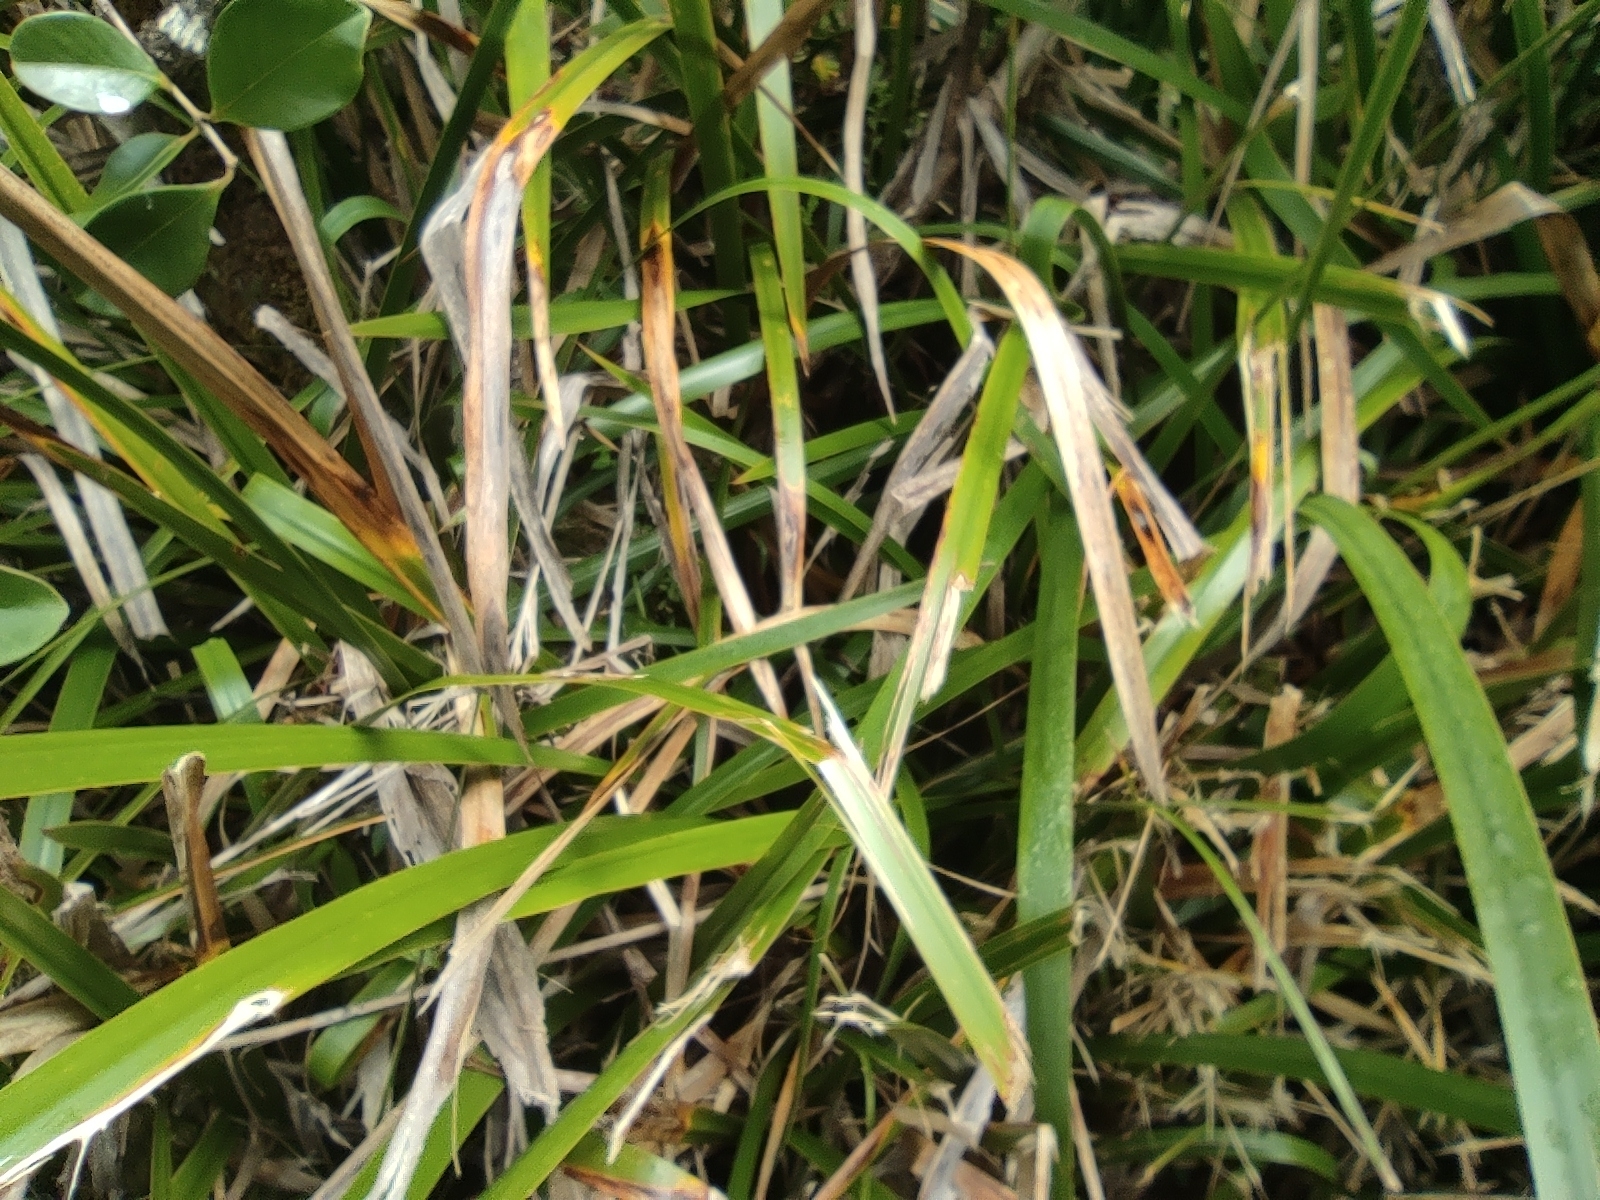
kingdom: Plantae
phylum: Tracheophyta
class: Liliopsida
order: Poales
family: Cyperaceae
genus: Machaerina
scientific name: Machaerina iridifolia
